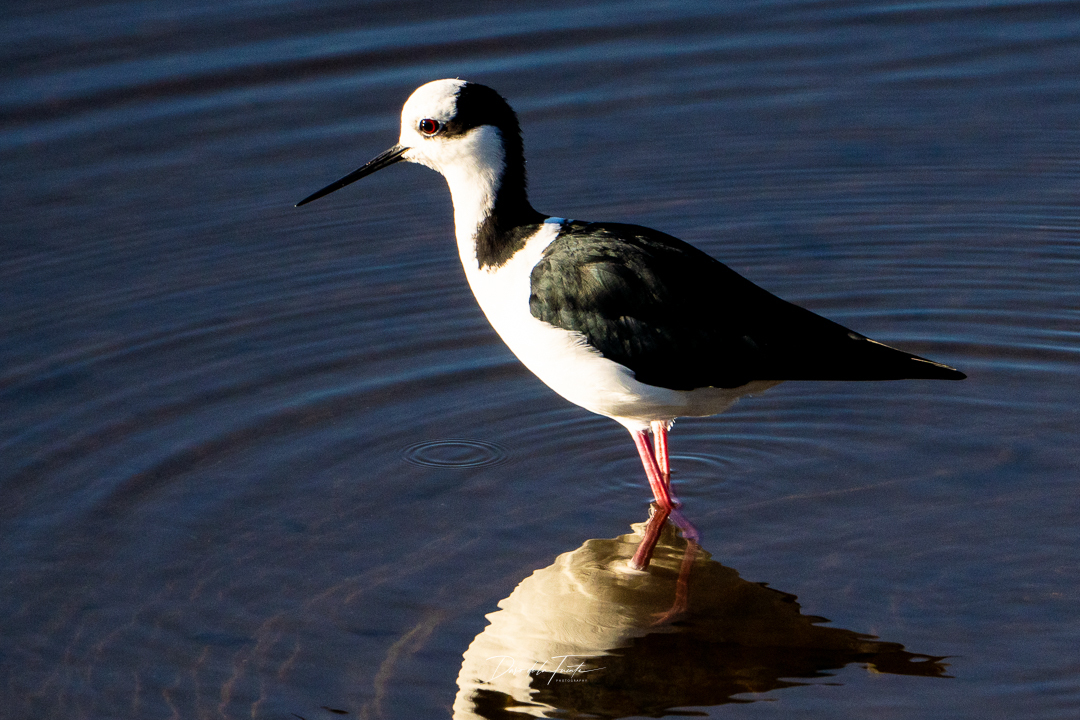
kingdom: Animalia
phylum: Chordata
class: Aves
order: Charadriiformes
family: Recurvirostridae
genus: Himantopus
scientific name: Himantopus mexicanus
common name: Black-necked stilt
